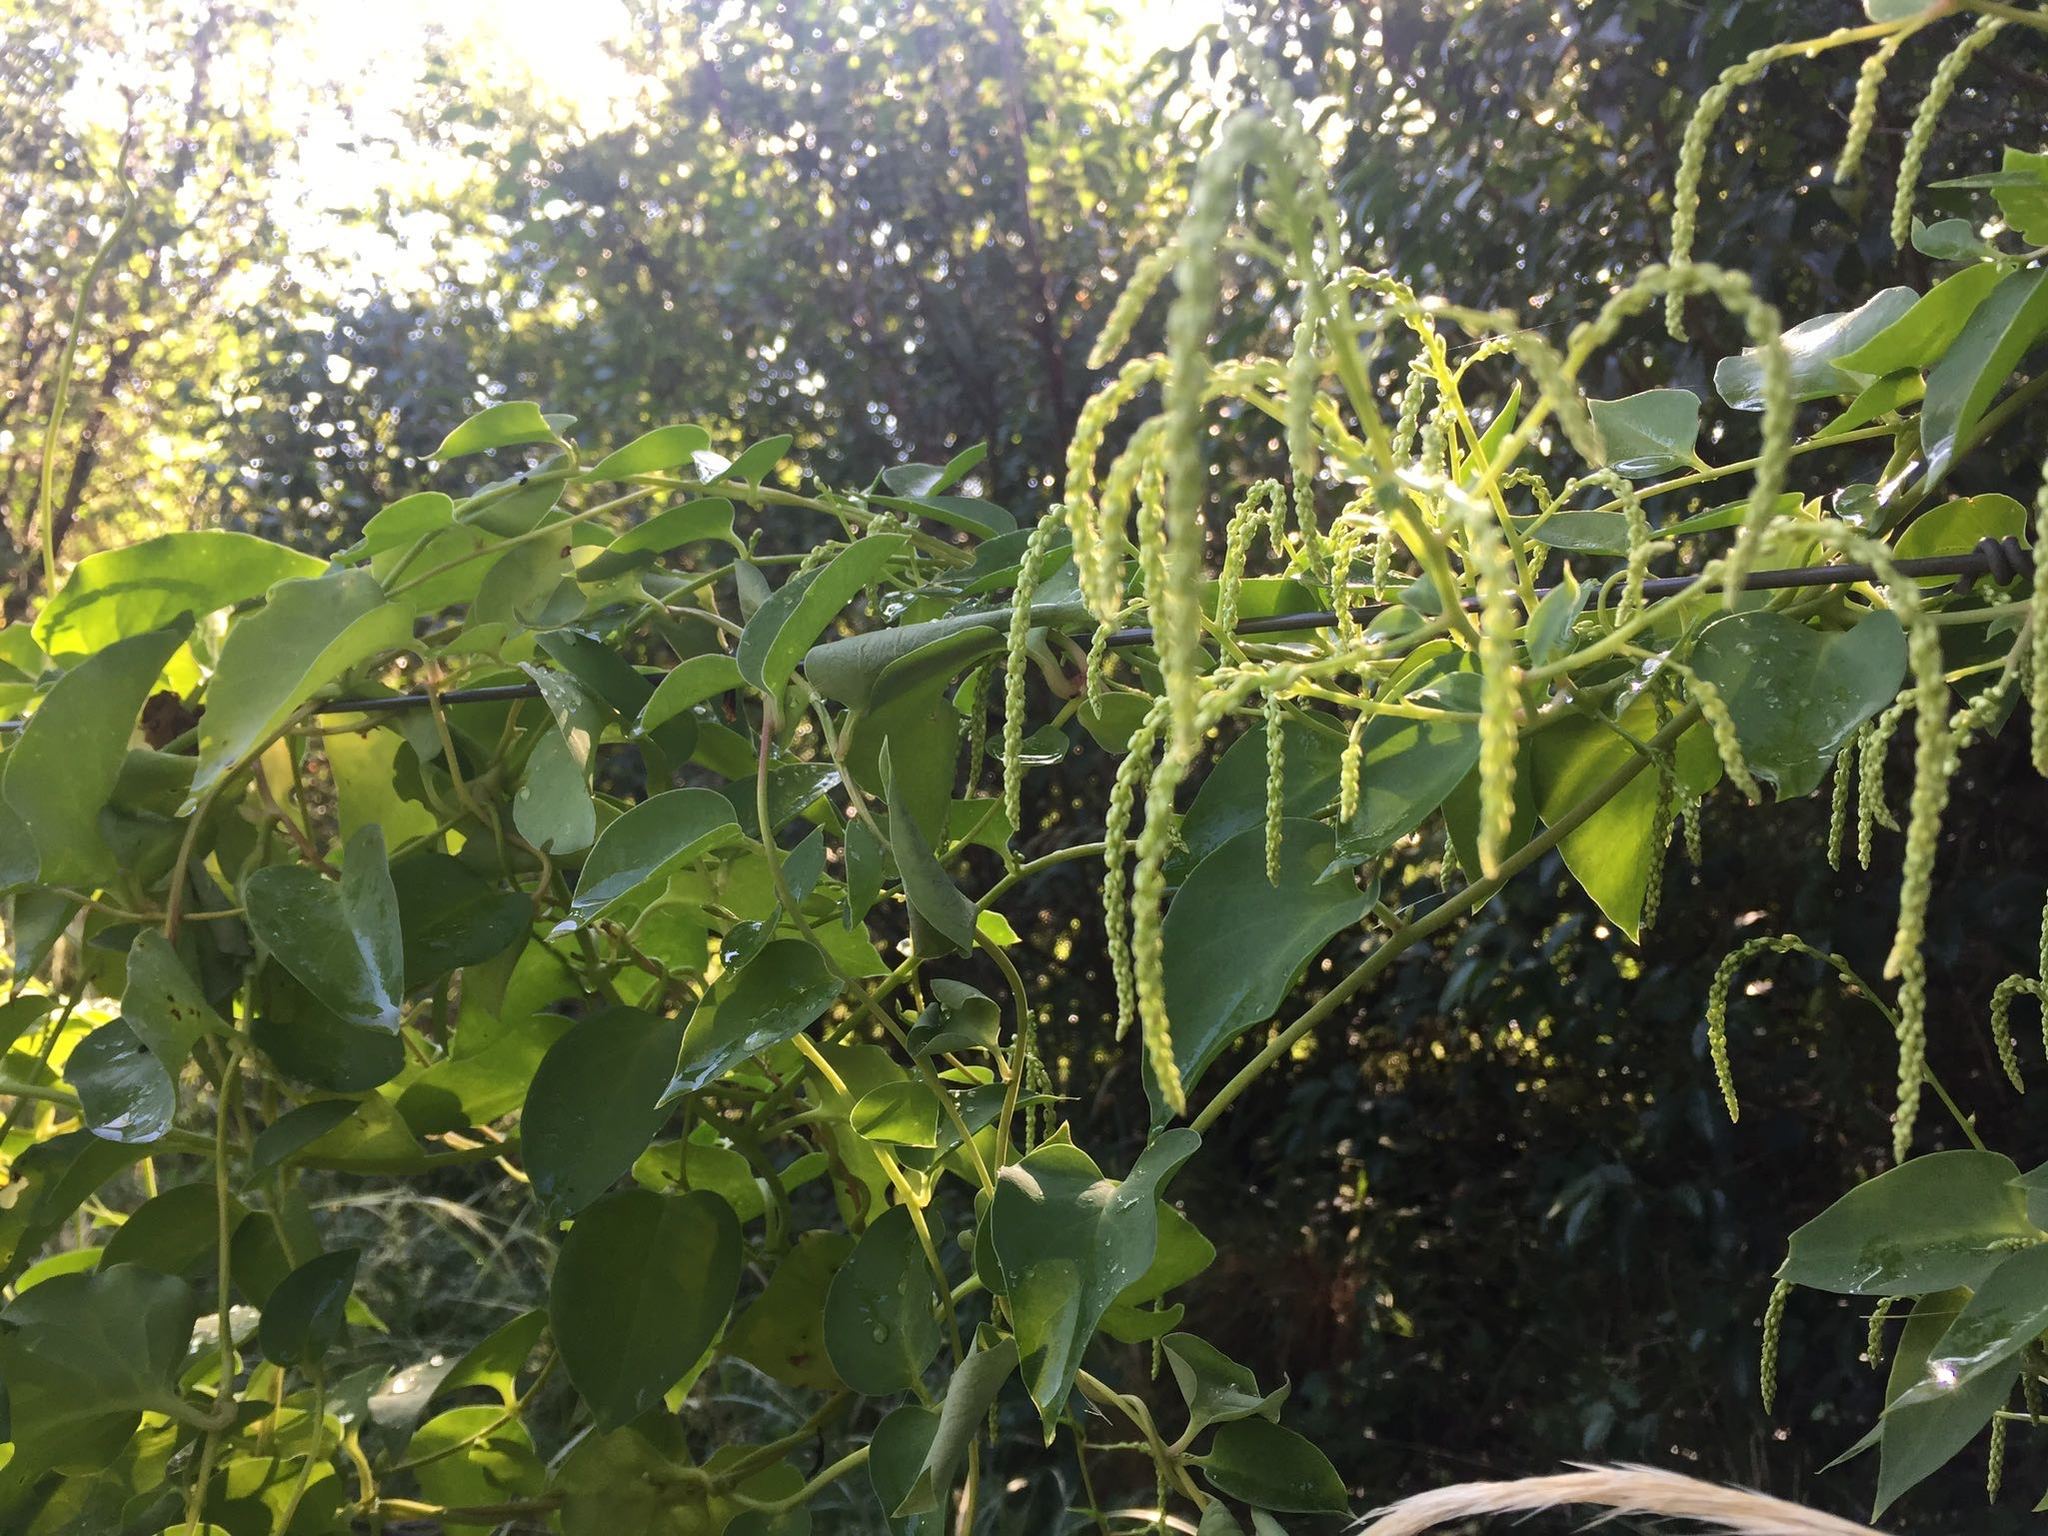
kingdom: Plantae
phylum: Tracheophyta
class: Magnoliopsida
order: Caryophyllales
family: Basellaceae
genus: Anredera
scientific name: Anredera cordifolia
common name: Heartleaf madeiravine
